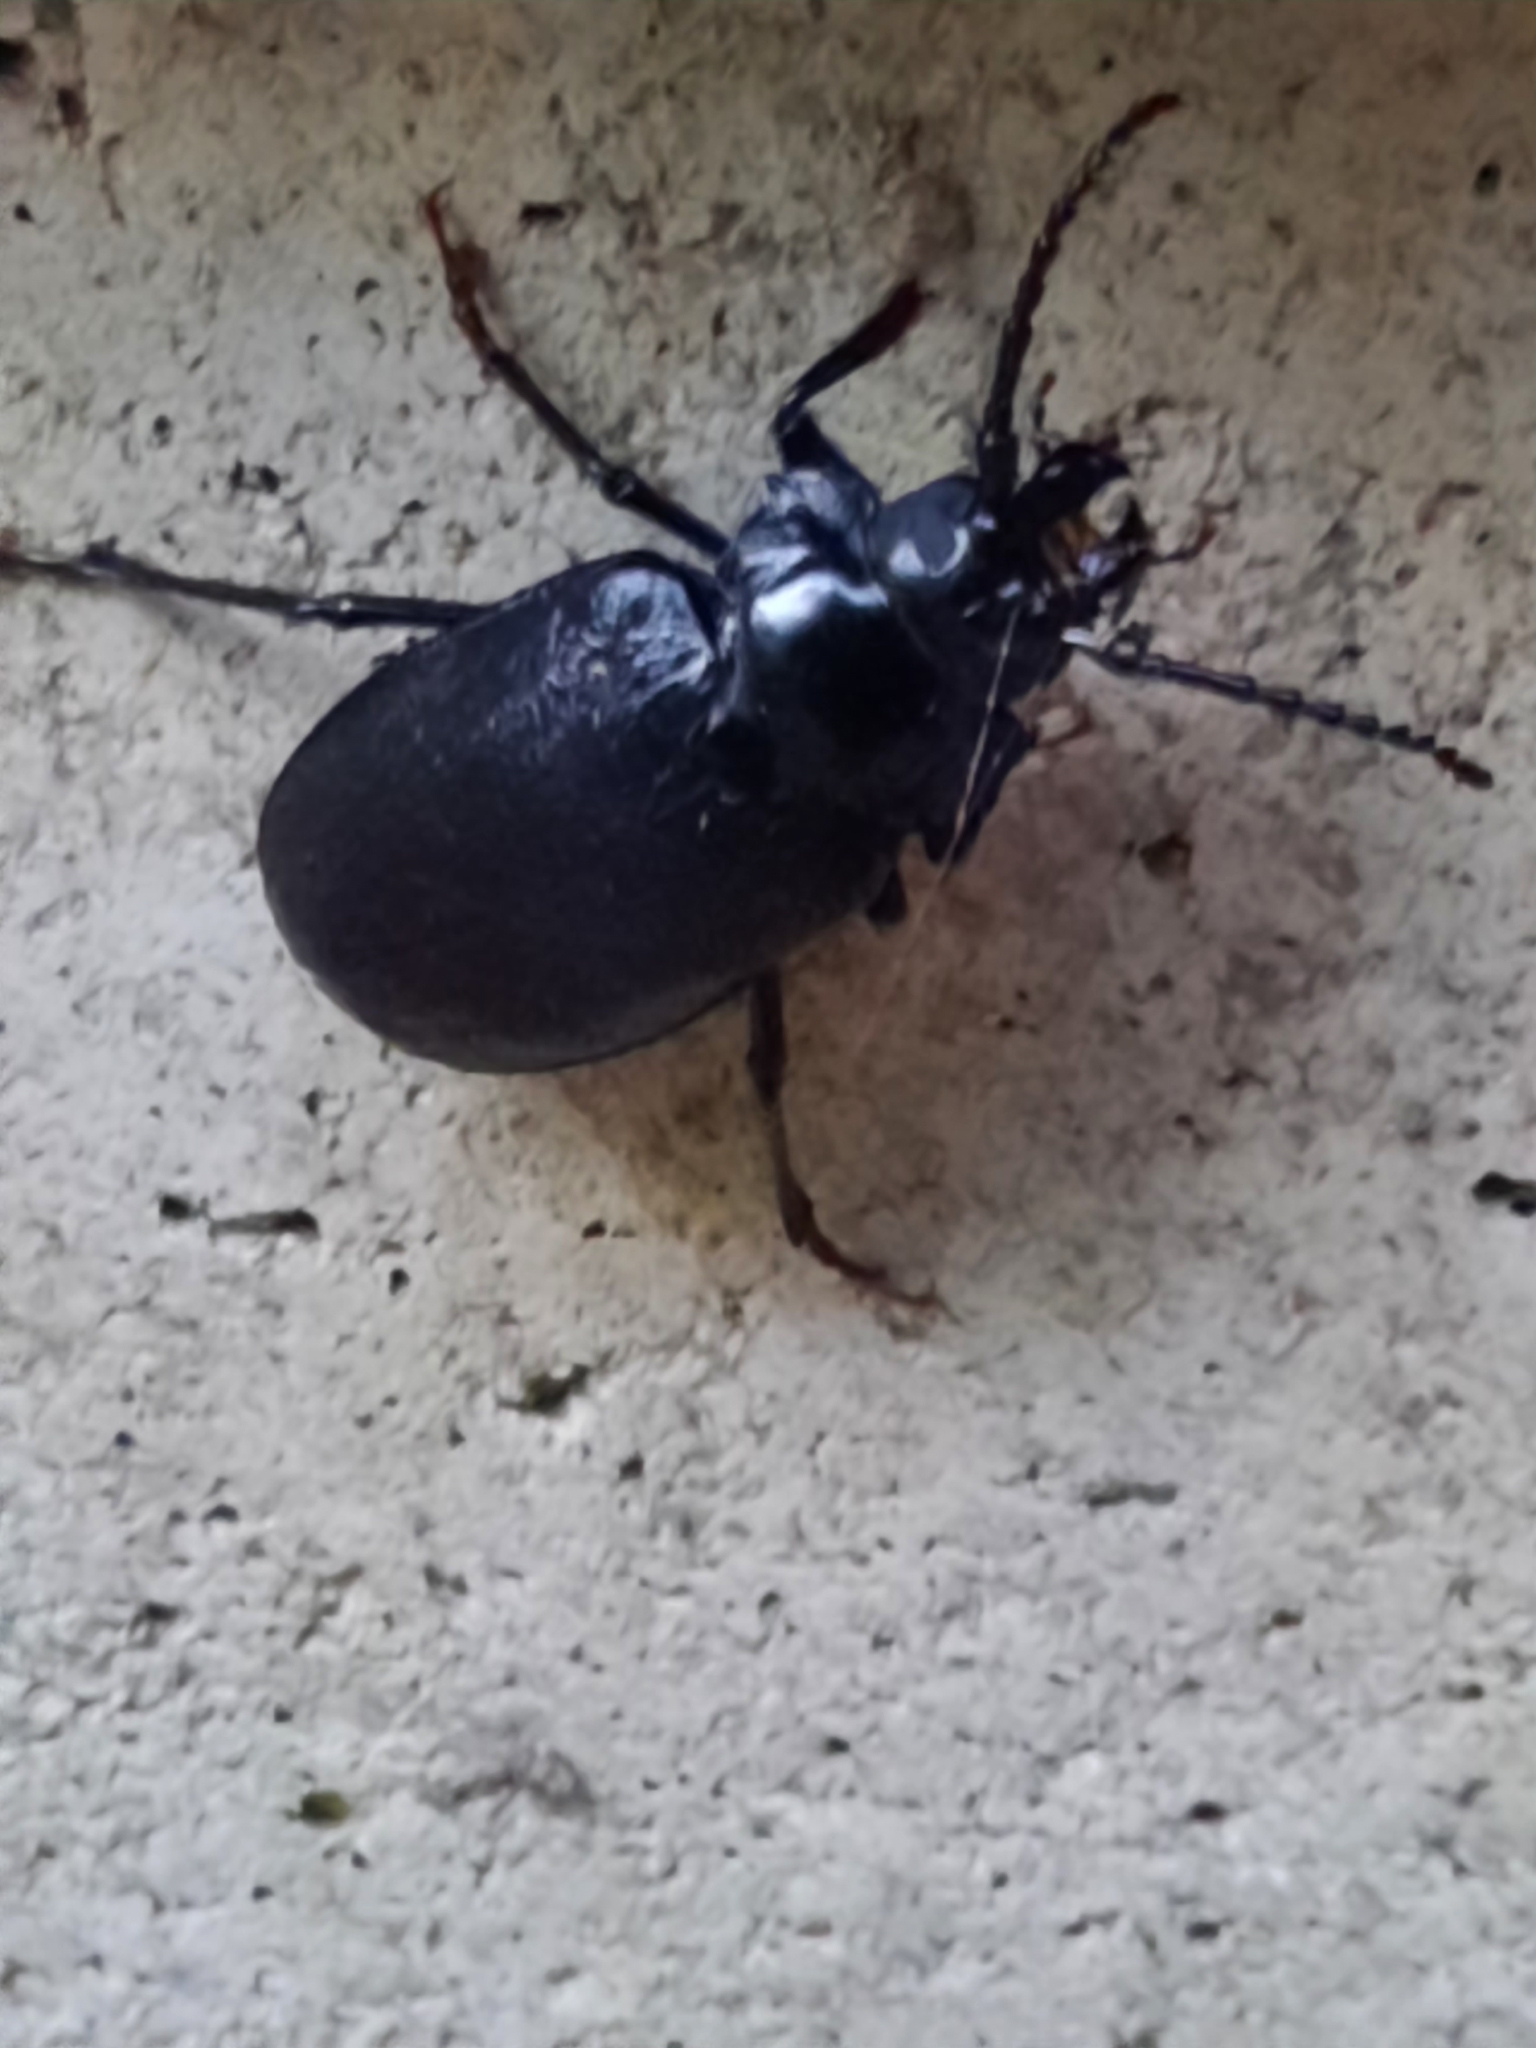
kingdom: Animalia
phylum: Arthropoda
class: Insecta
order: Coleoptera
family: Cerambycidae
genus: Prionus
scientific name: Prionus laticollis
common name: Broad necked prionus
